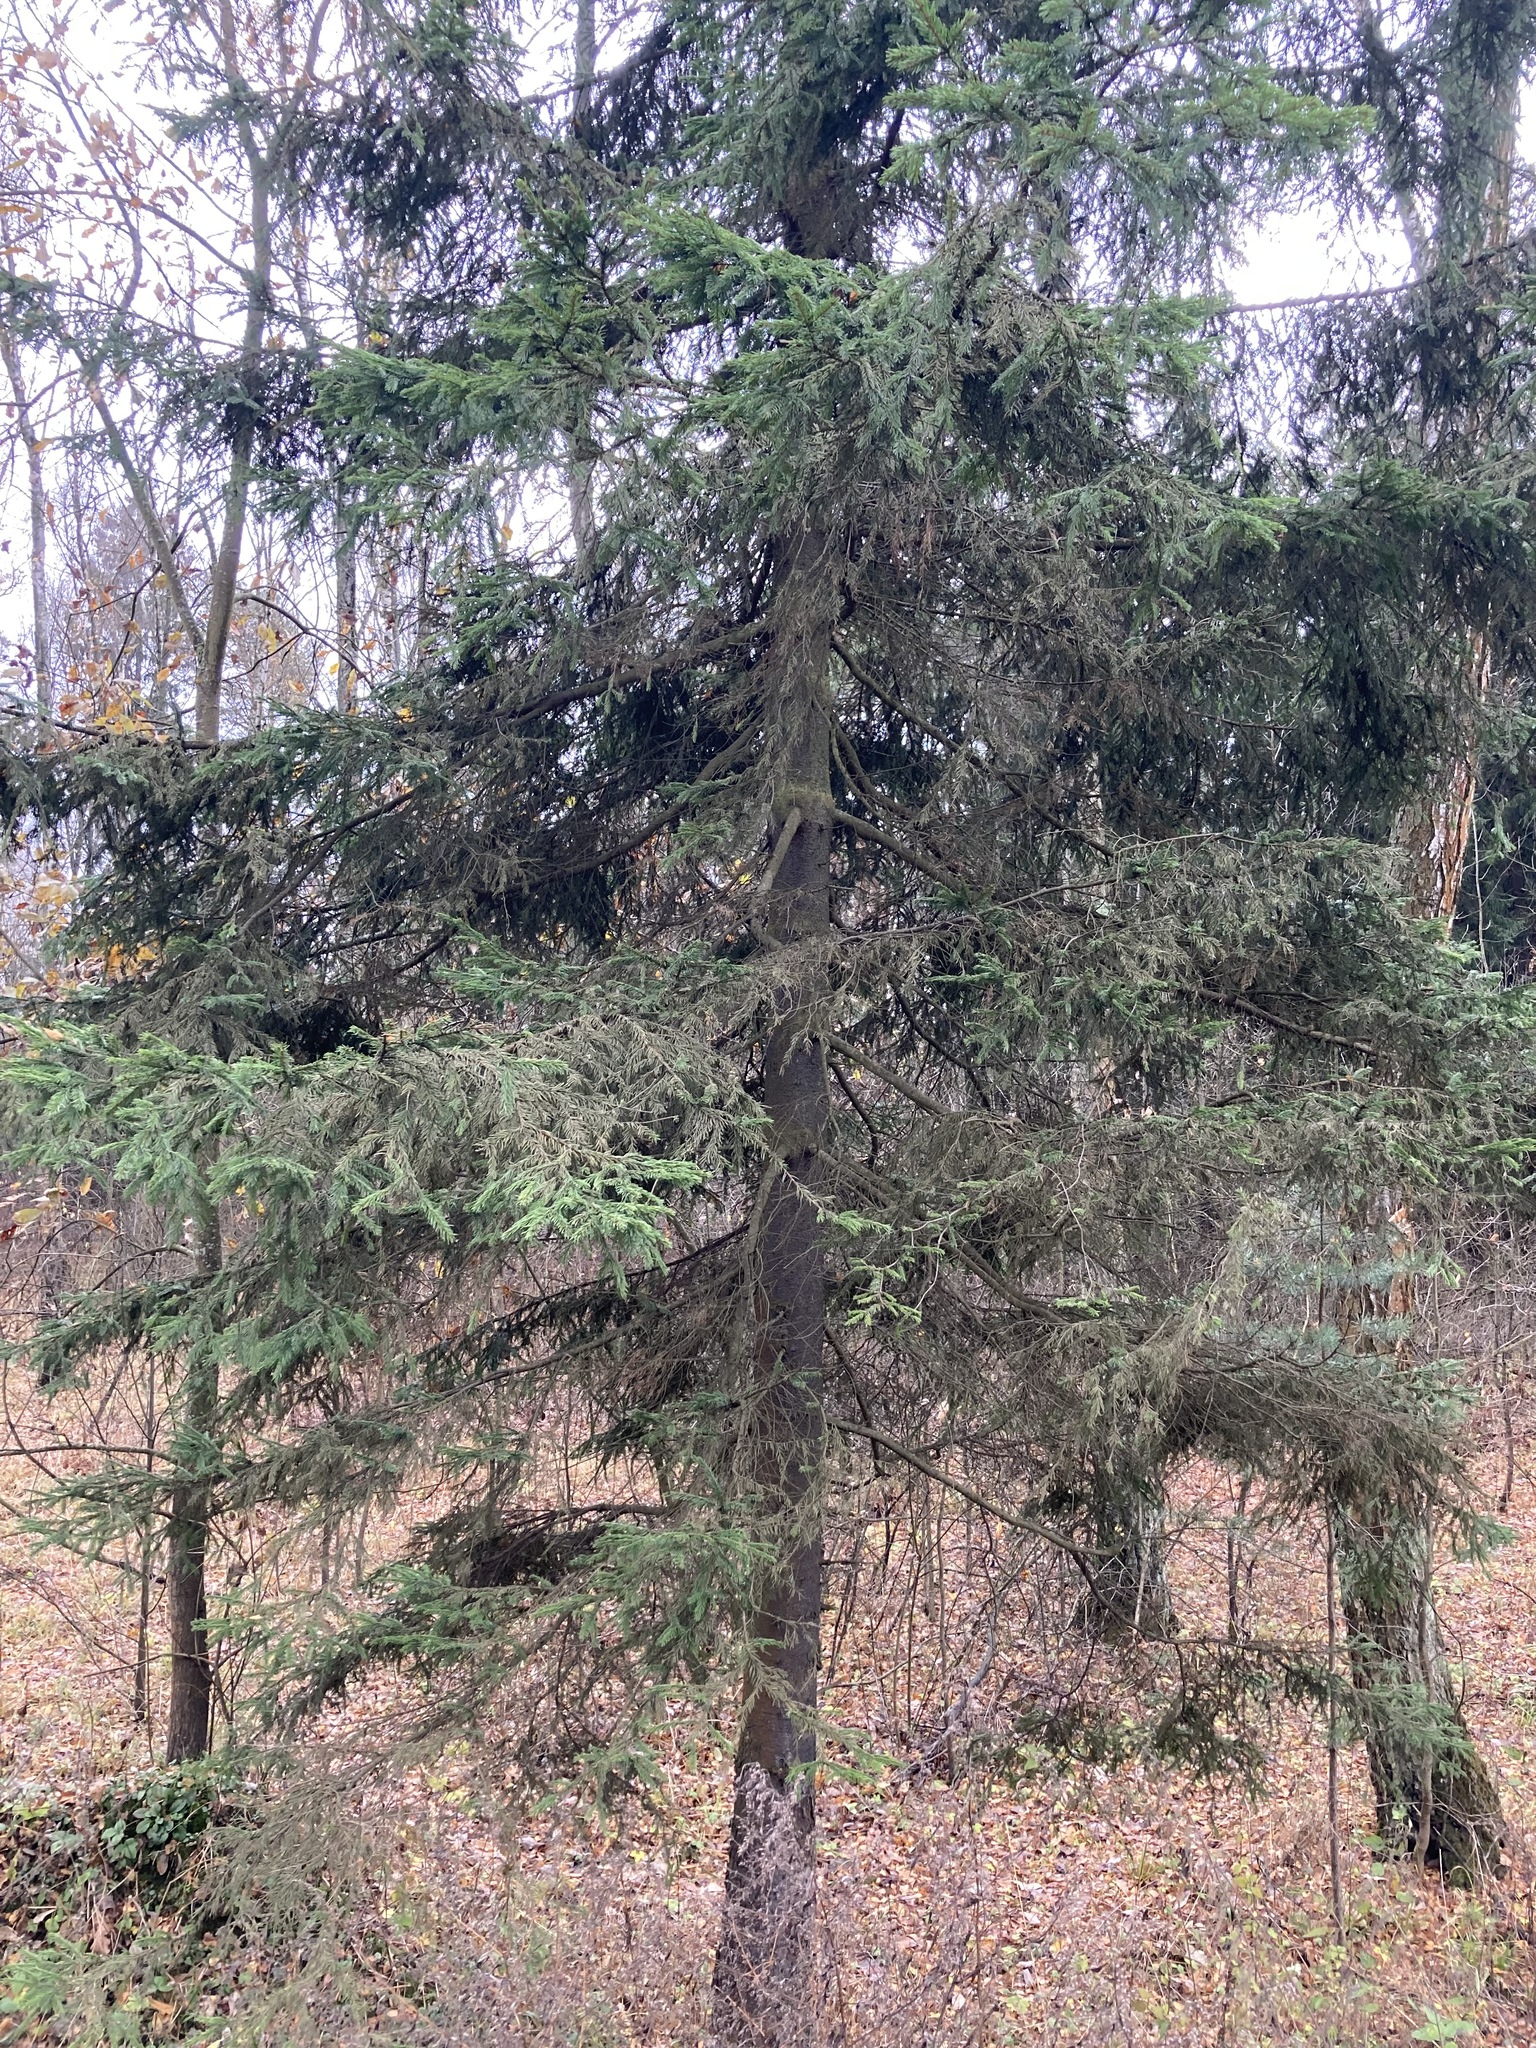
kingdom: Plantae
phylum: Tracheophyta
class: Pinopsida
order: Pinales
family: Pinaceae
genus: Picea
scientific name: Picea abies
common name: Norway spruce
